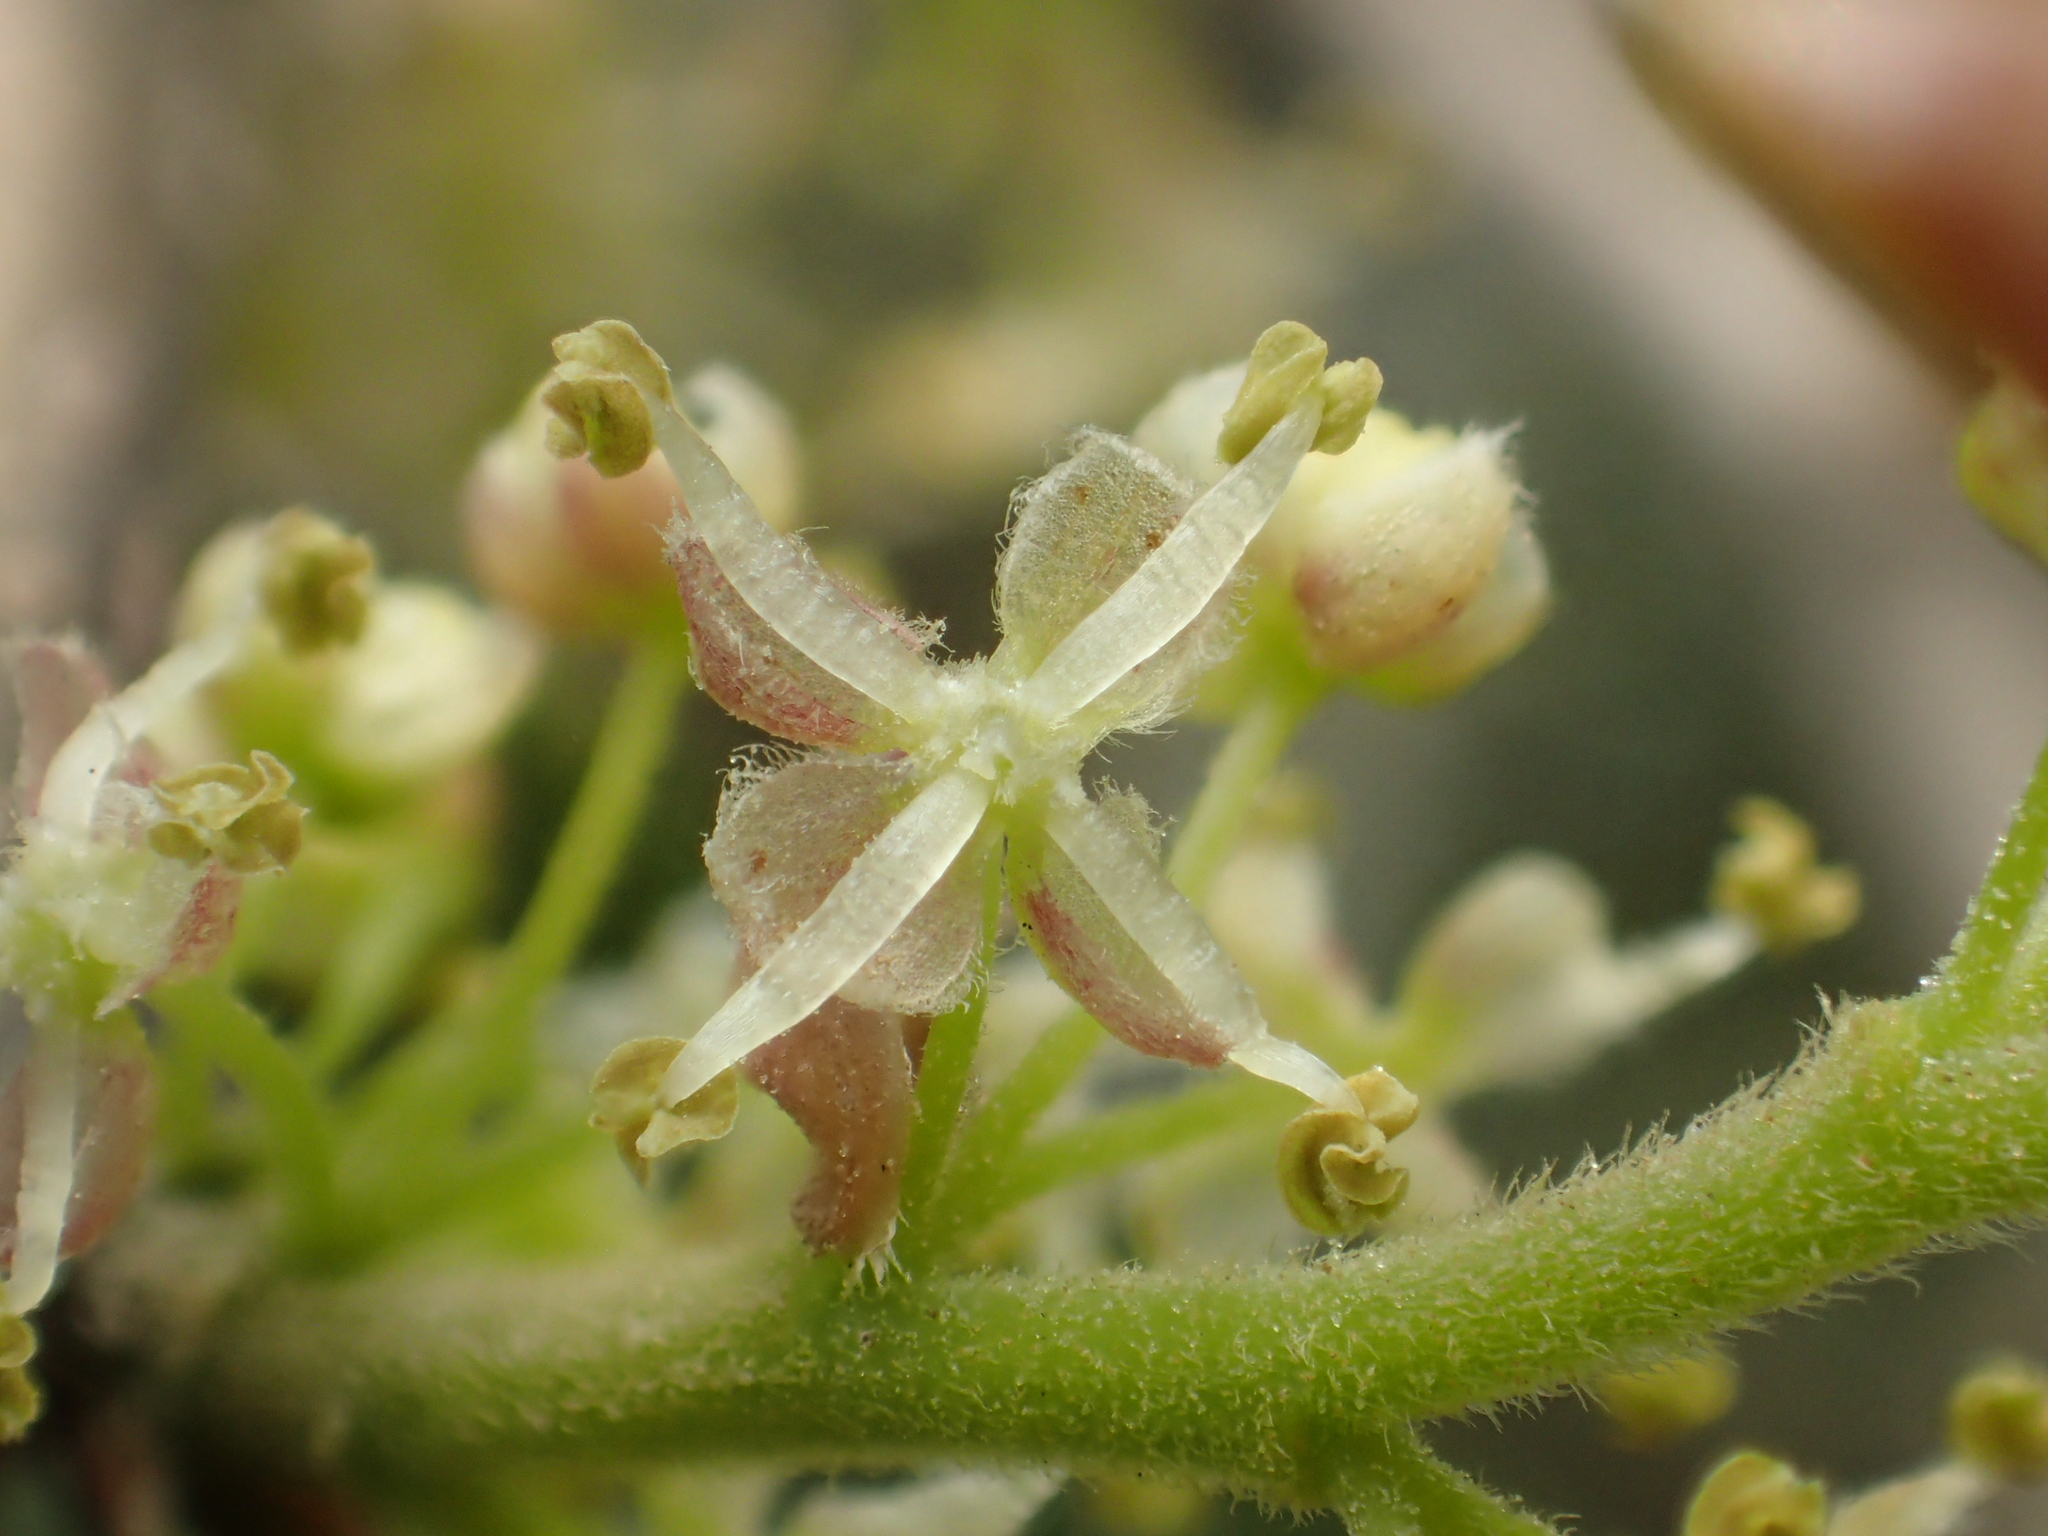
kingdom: Plantae
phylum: Tracheophyta
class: Magnoliopsida
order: Rosales
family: Cannabaceae
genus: Celtis
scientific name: Celtis sinensis
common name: Chinese hackberry
